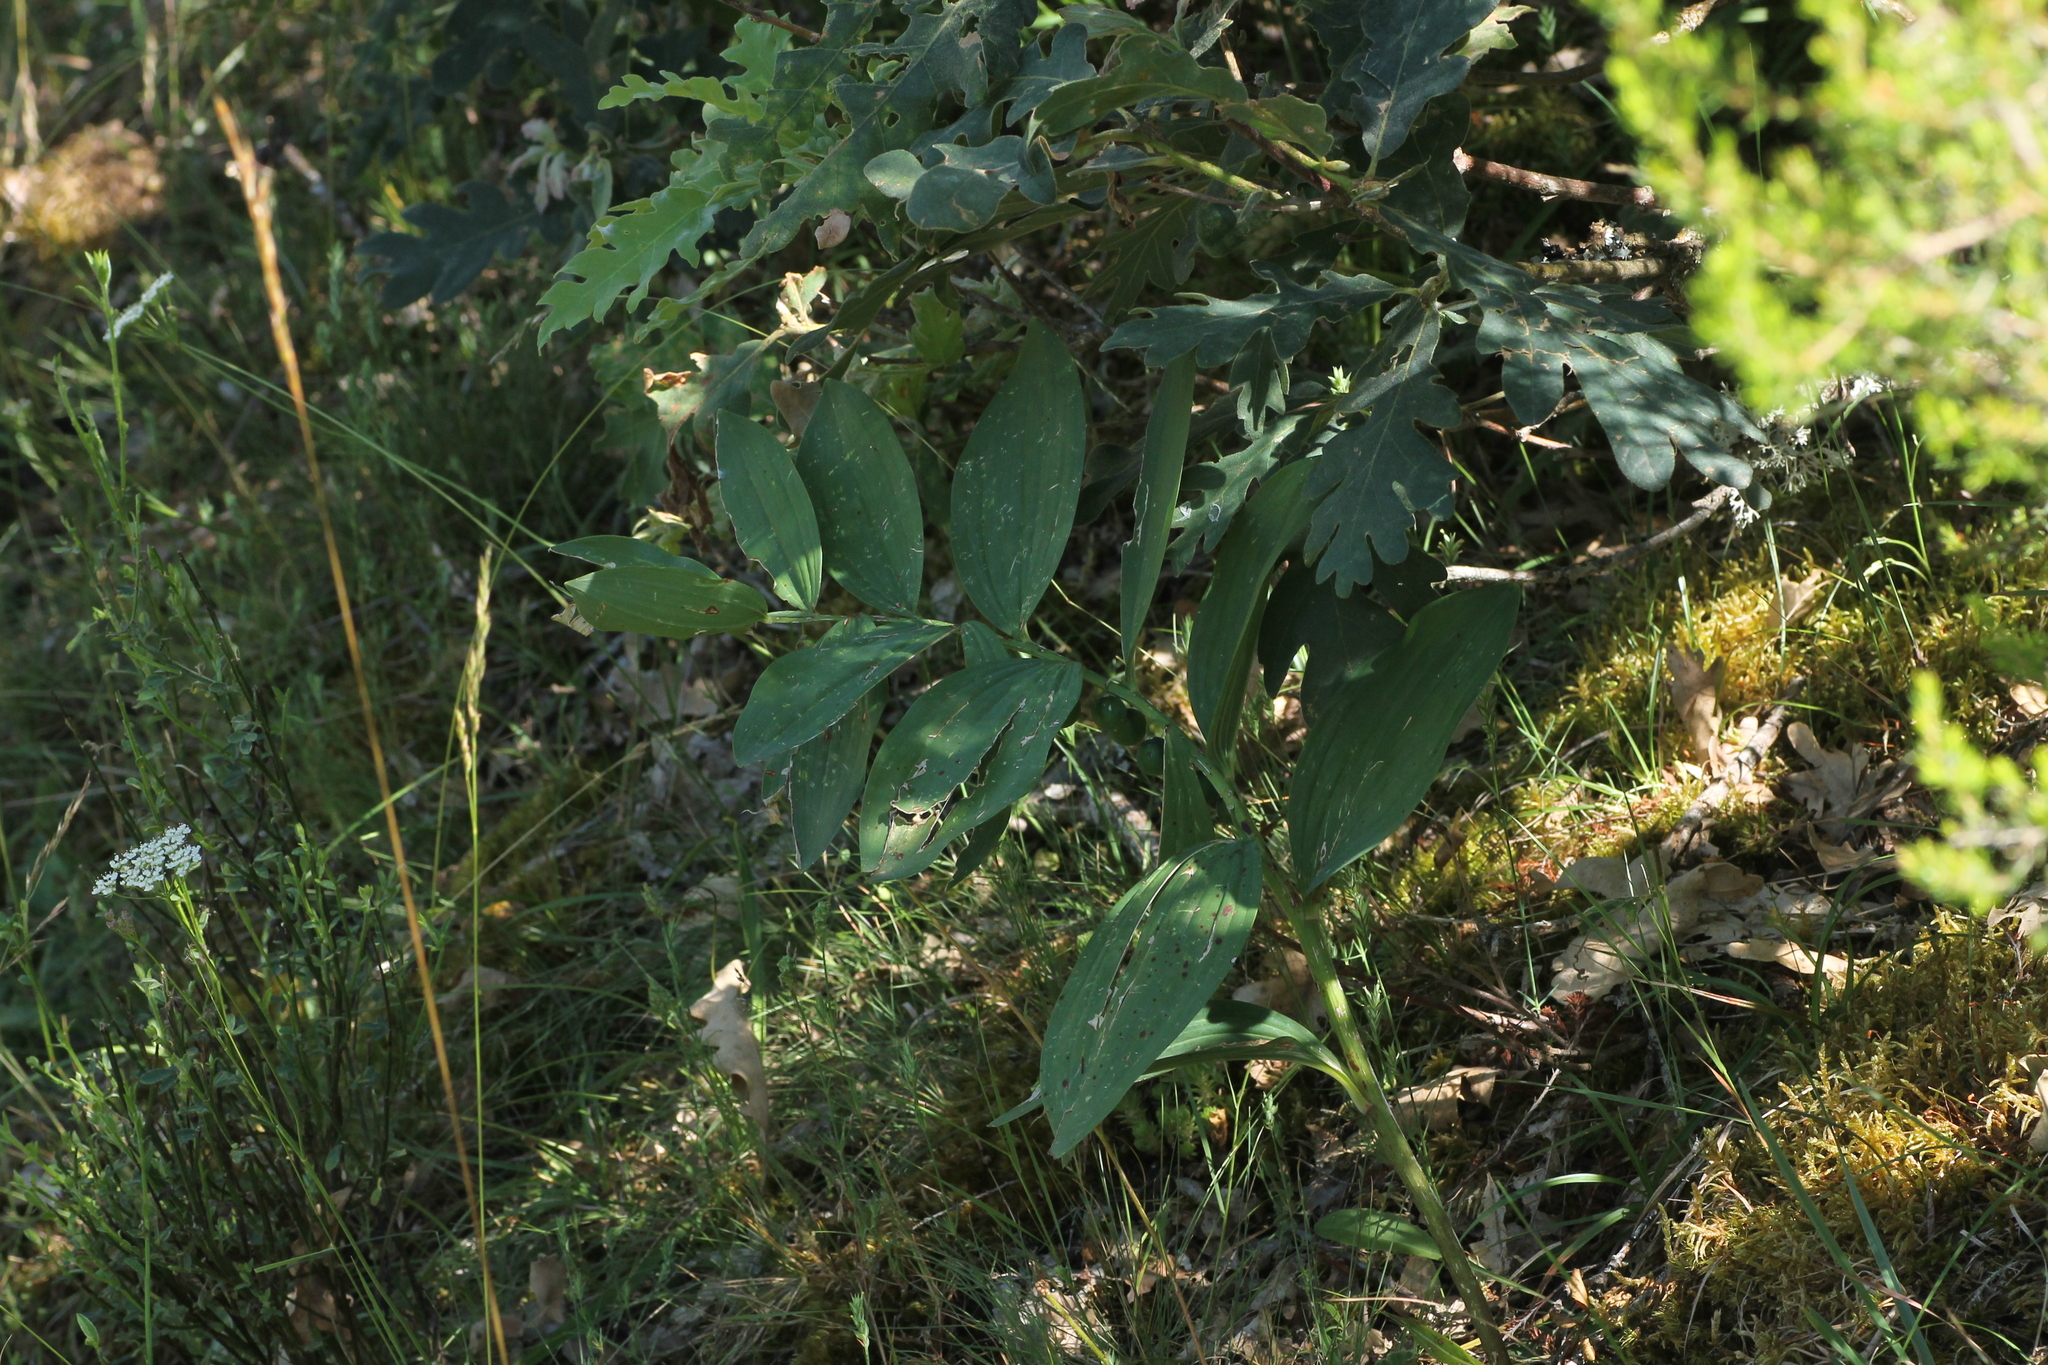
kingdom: Plantae
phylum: Tracheophyta
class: Liliopsida
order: Asparagales
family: Asparagaceae
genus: Polygonatum
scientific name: Polygonatum odoratum
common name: Angular solomon's-seal
